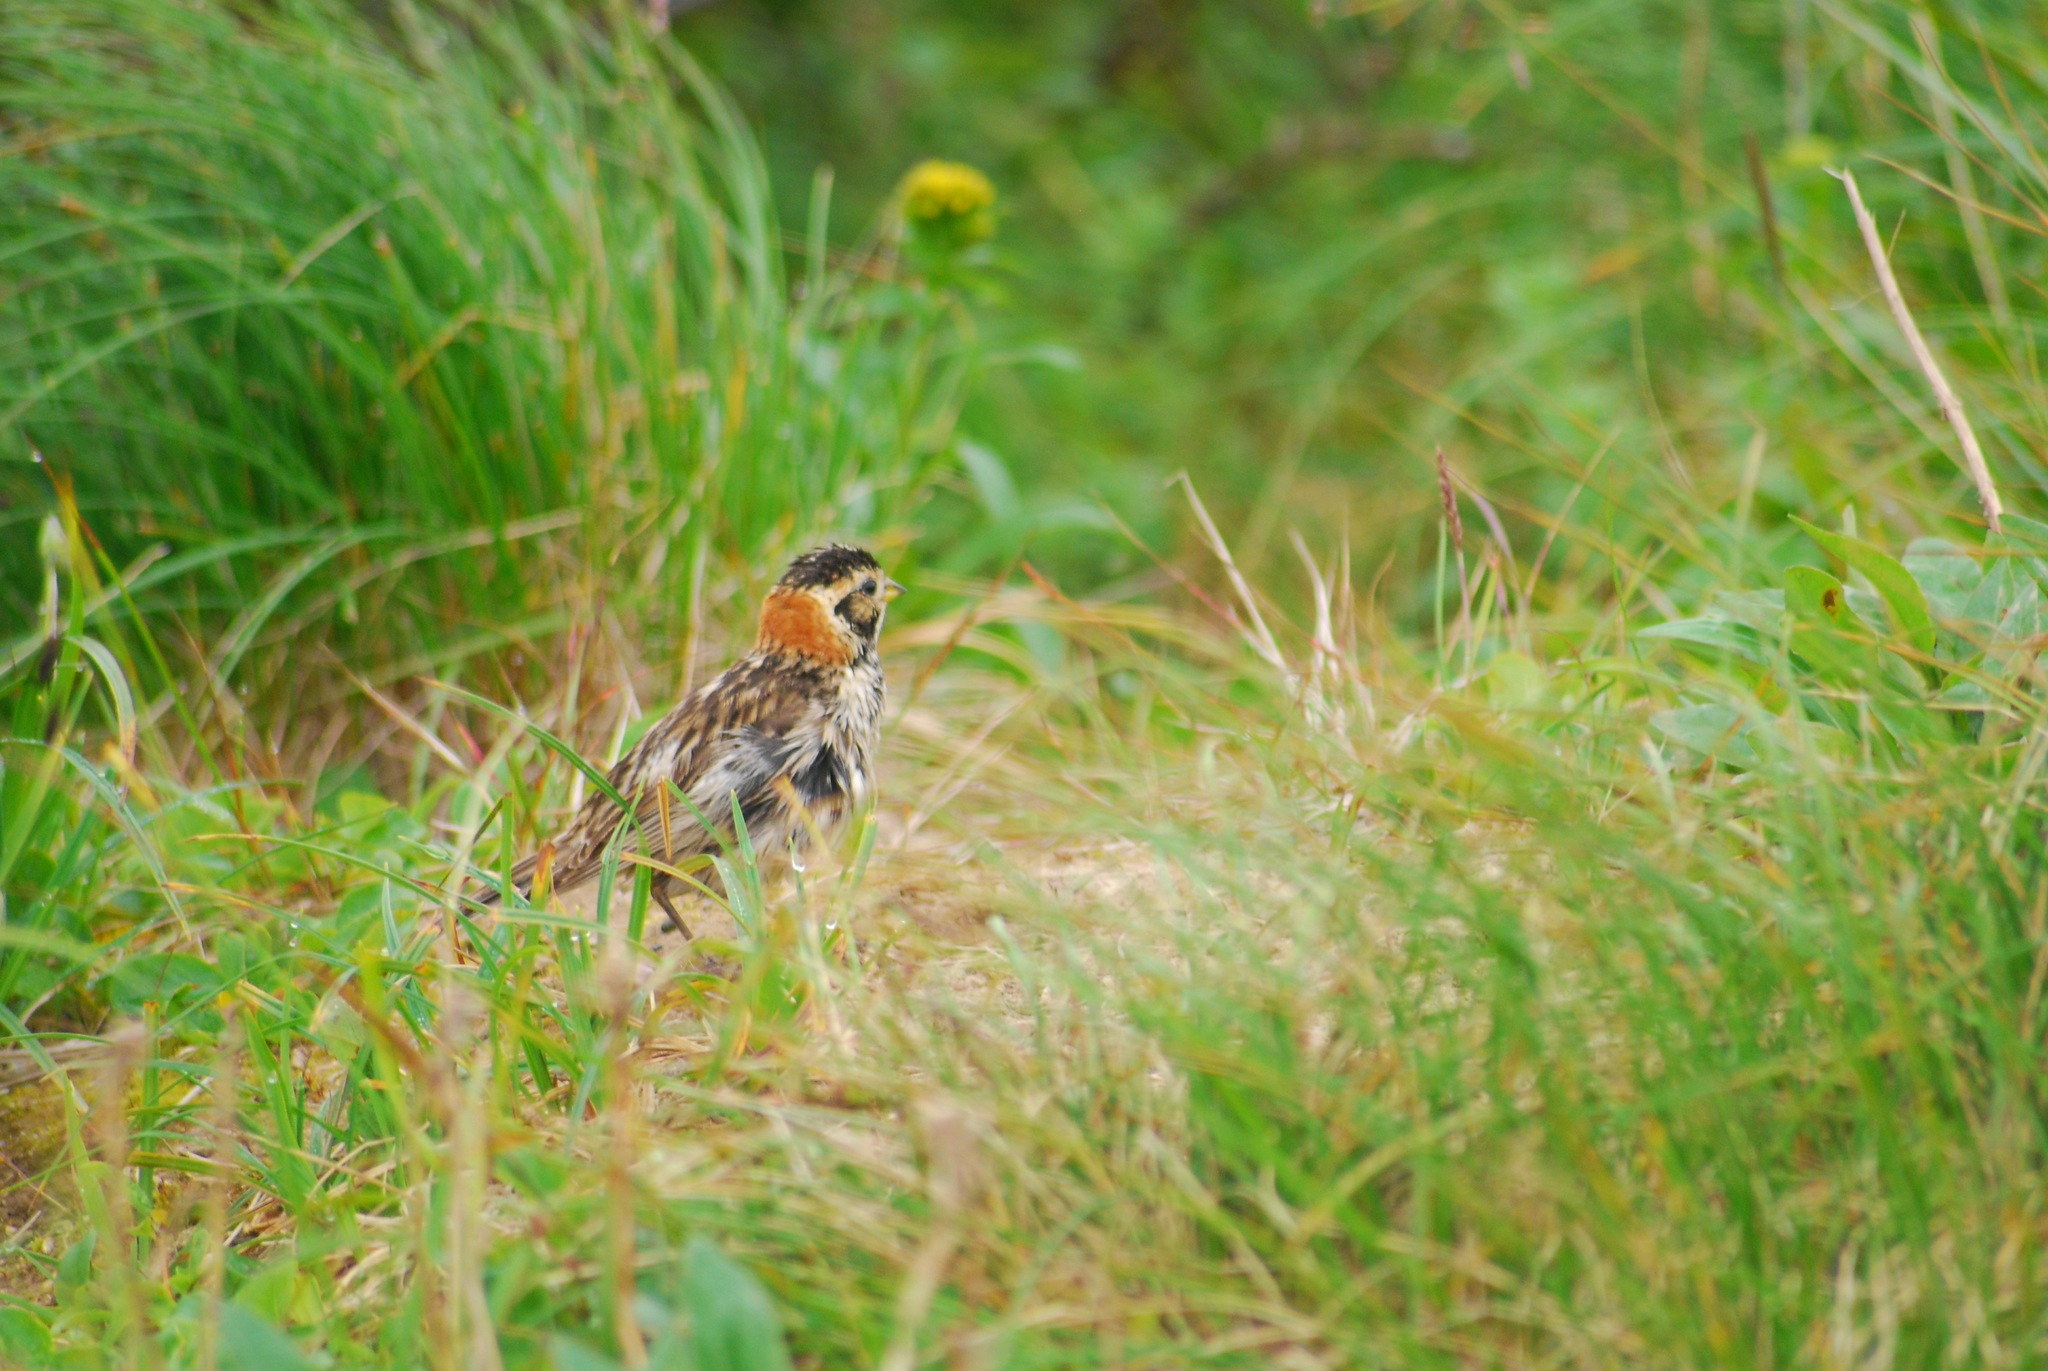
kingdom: Animalia
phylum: Chordata
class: Aves
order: Passeriformes
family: Calcariidae
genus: Calcarius
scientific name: Calcarius lapponicus
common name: Lapland longspur
